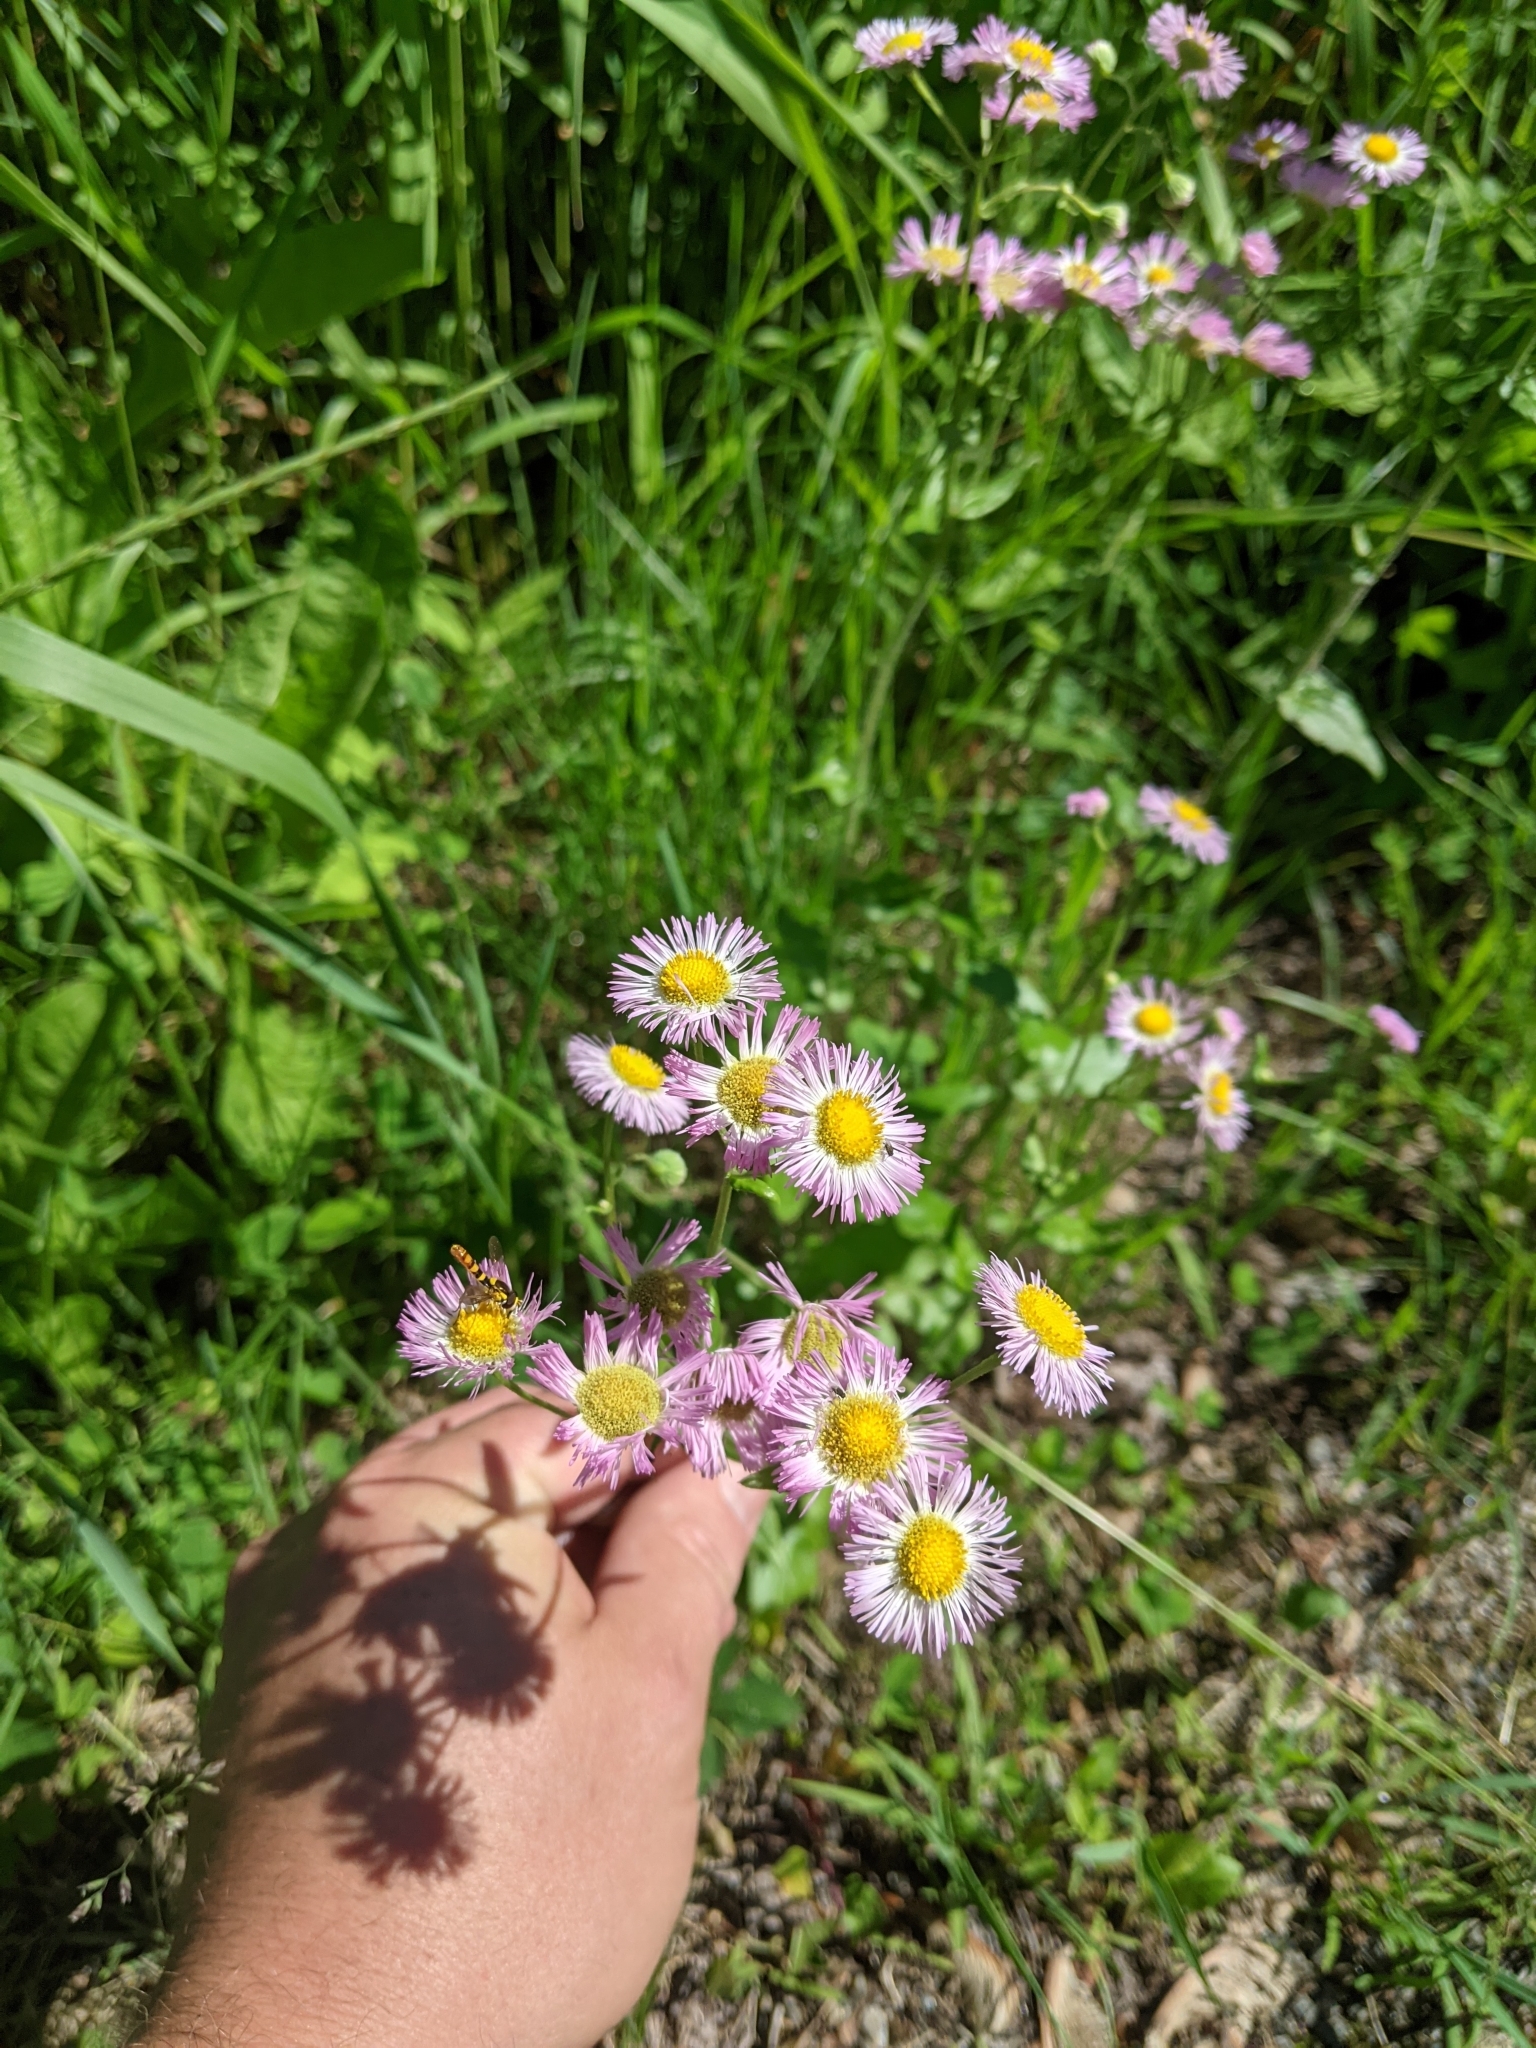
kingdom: Plantae
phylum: Tracheophyta
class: Magnoliopsida
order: Asterales
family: Asteraceae
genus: Erigeron
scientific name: Erigeron philadelphicus
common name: Robin's-plantain
